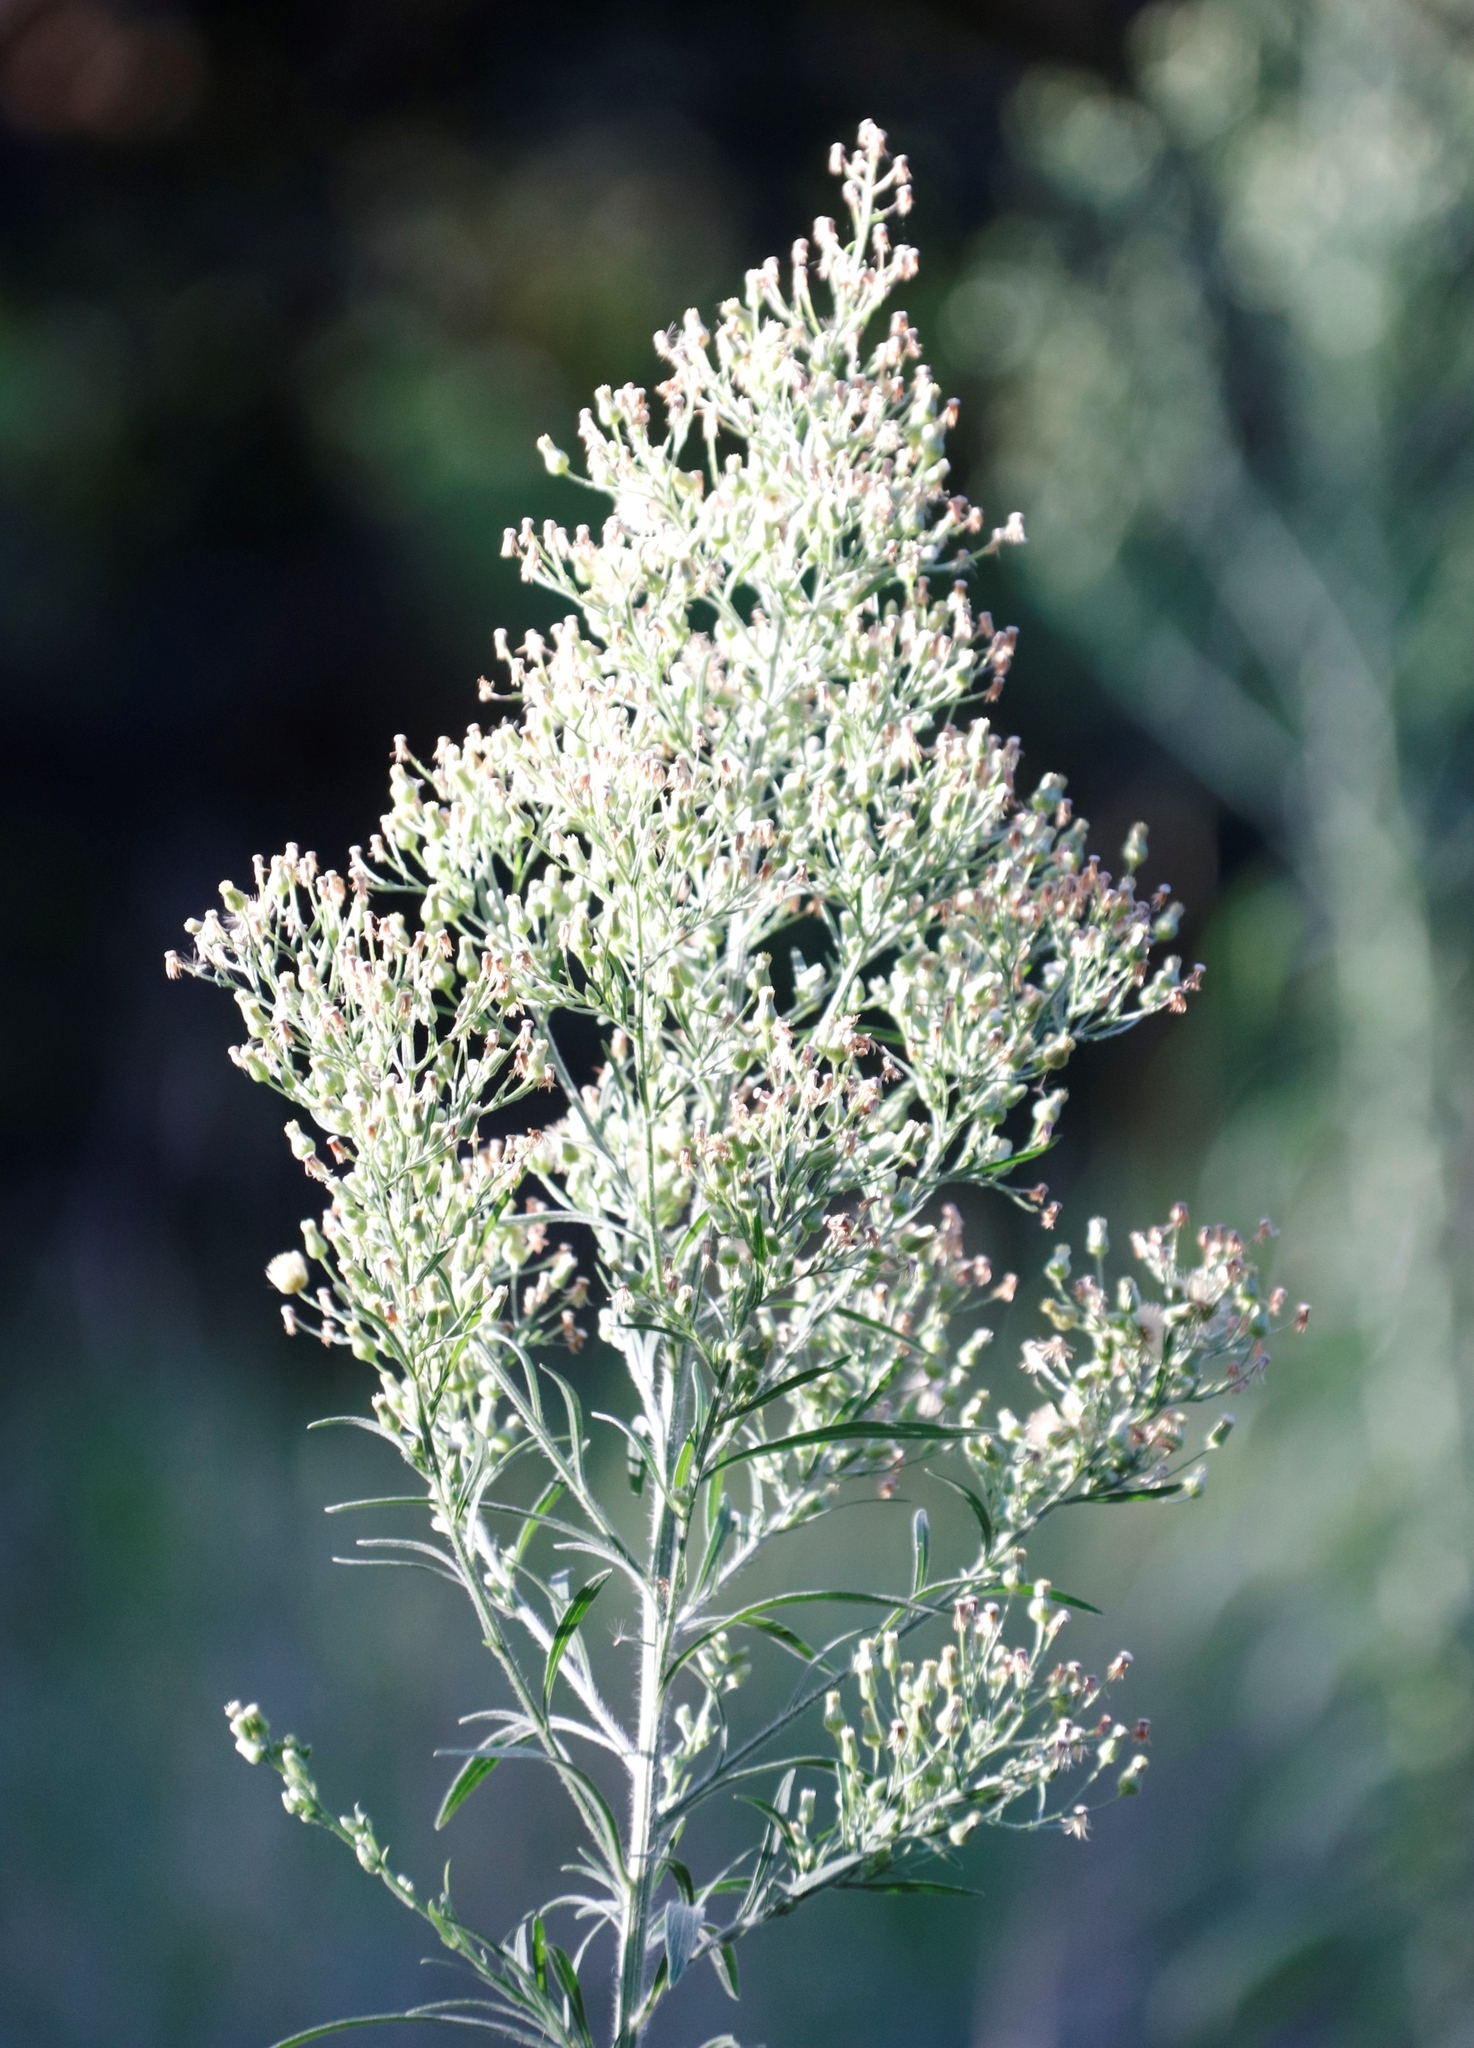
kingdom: Plantae
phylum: Tracheophyta
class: Magnoliopsida
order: Asterales
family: Asteraceae
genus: Erigeron
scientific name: Erigeron sumatrensis
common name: Daisy
